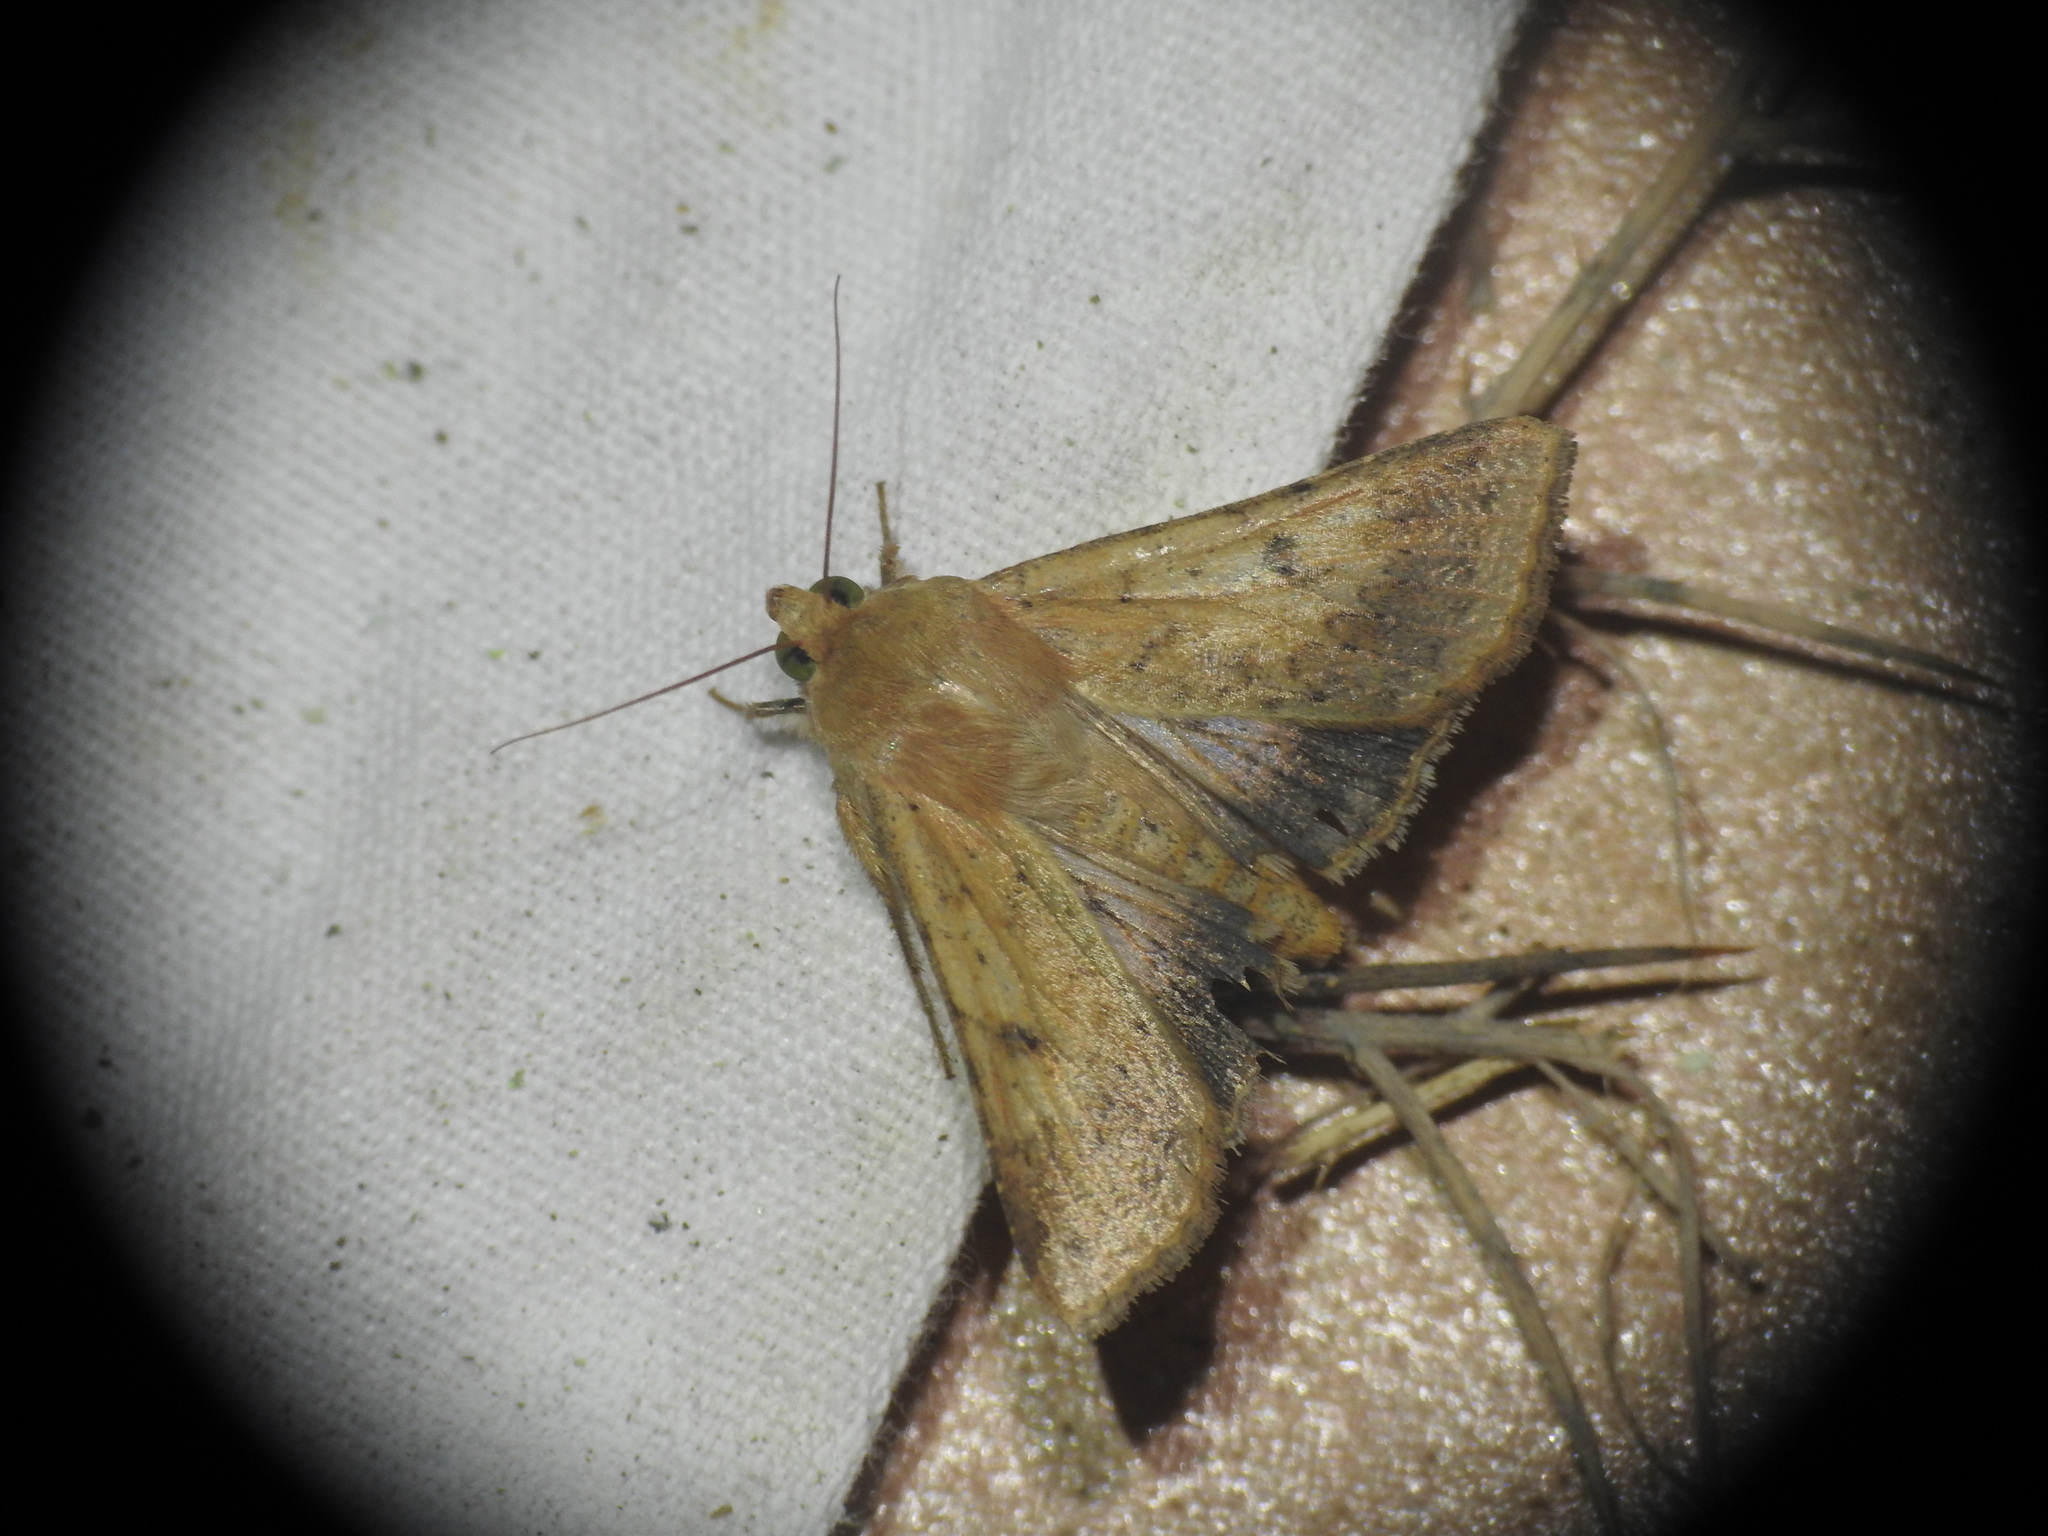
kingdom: Animalia
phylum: Arthropoda
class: Insecta
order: Lepidoptera
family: Noctuidae
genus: Helicoverpa
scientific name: Helicoverpa armigera
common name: Cotton bollworm
